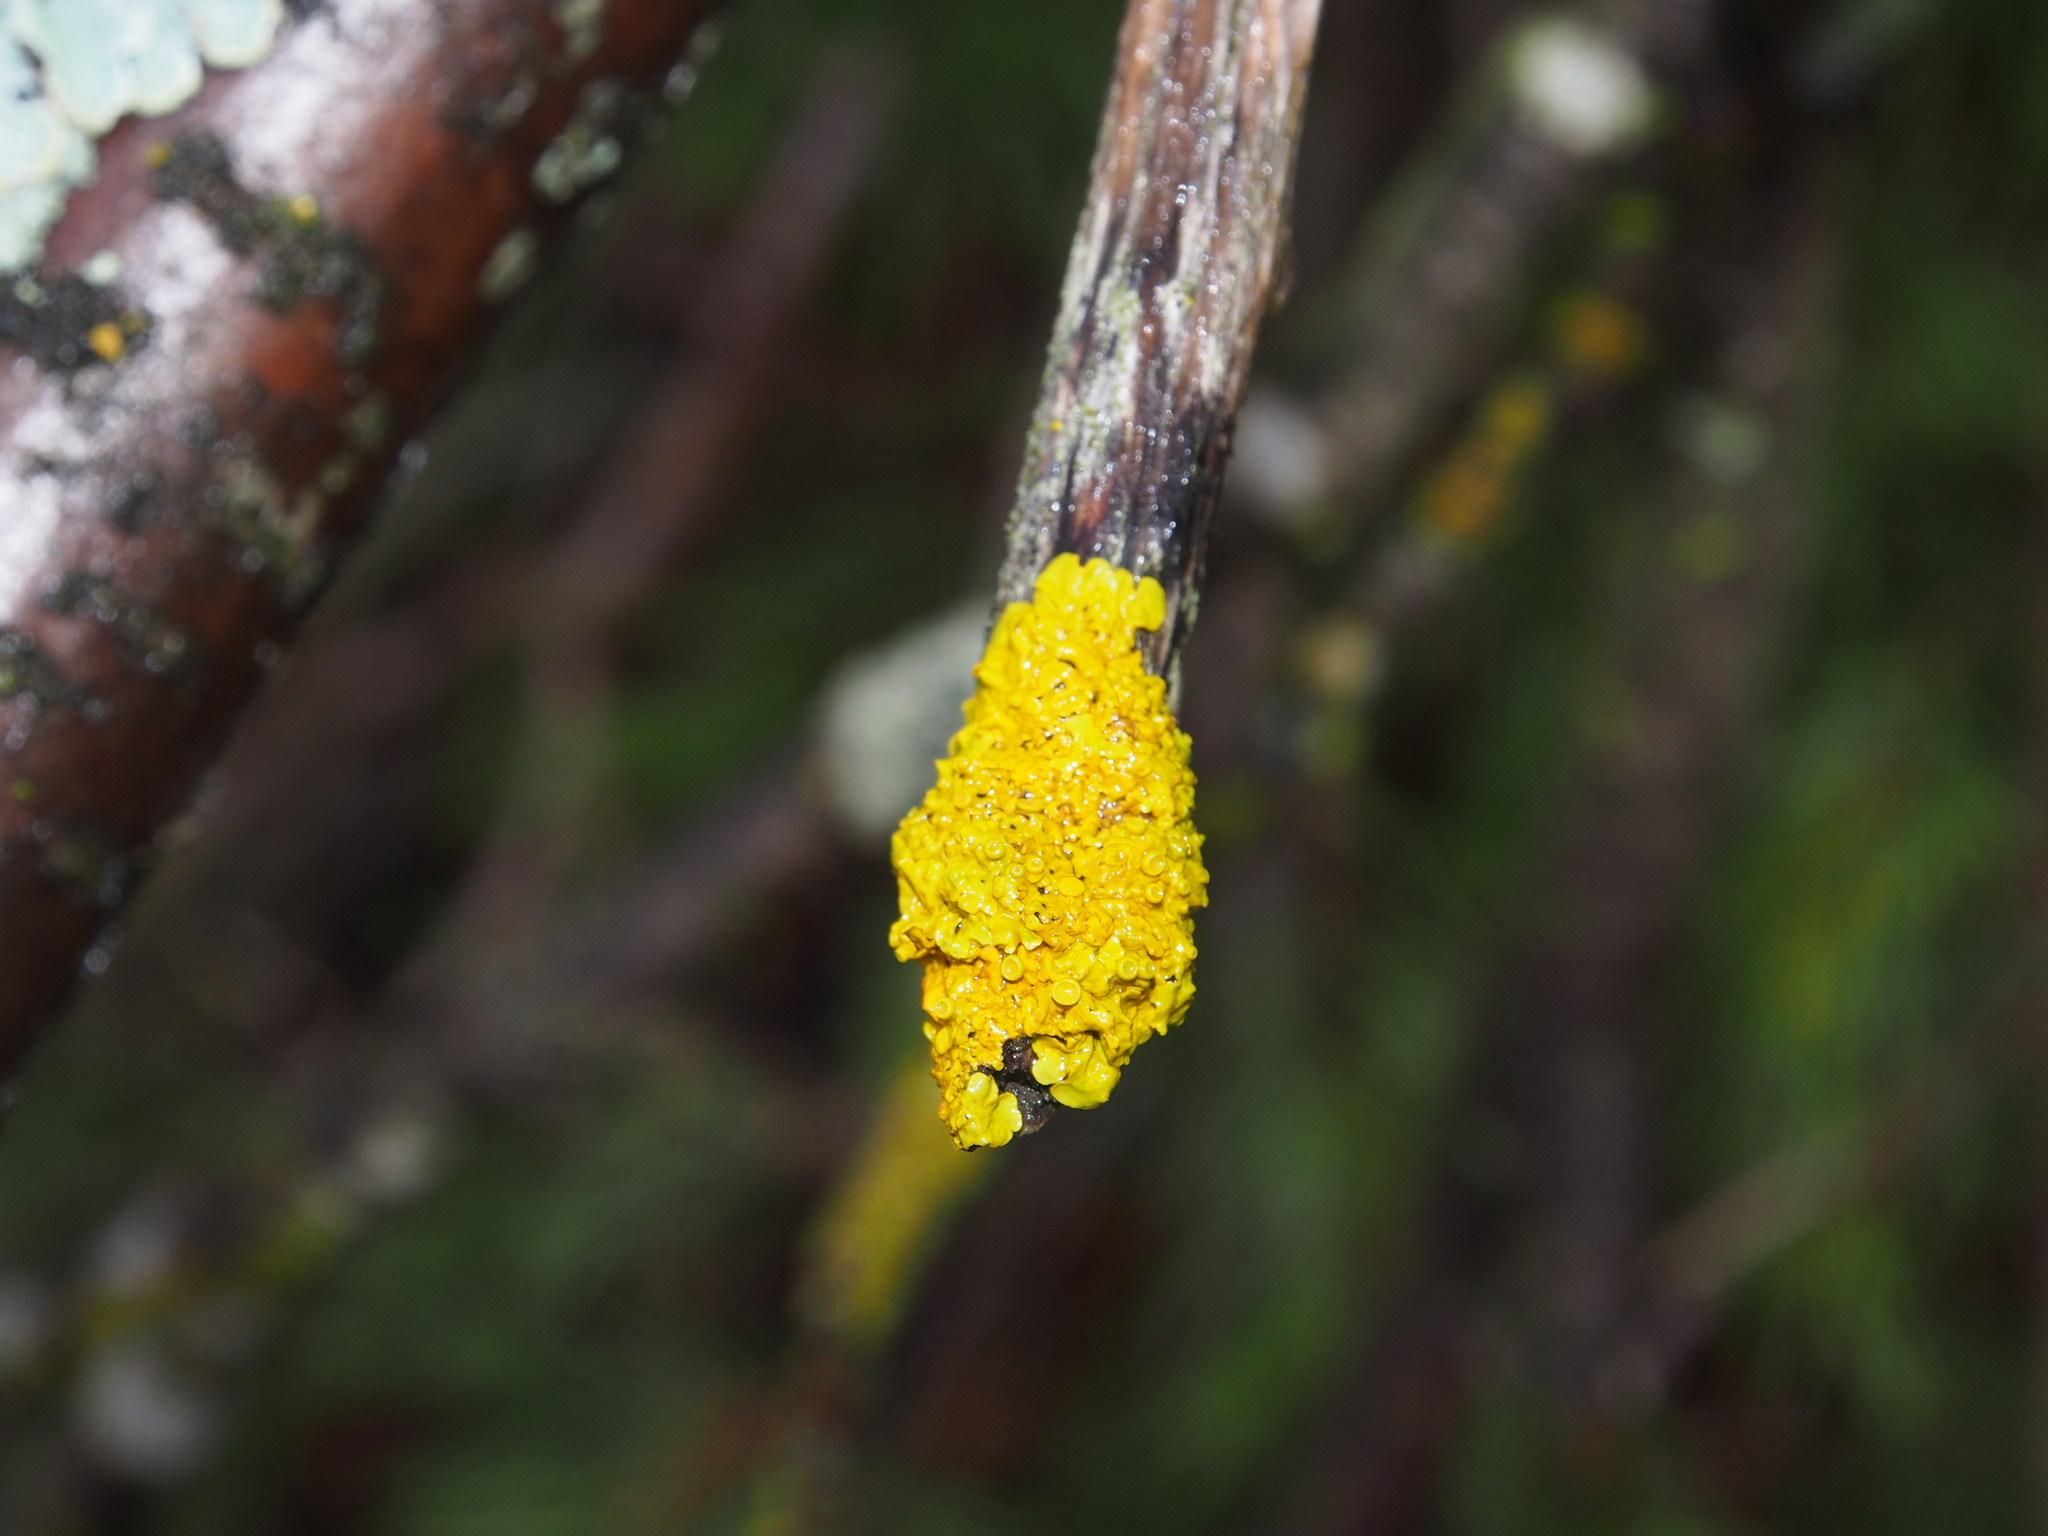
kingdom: Fungi
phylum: Ascomycota
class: Lecanoromycetes
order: Teloschistales
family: Teloschistaceae
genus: Xanthoria
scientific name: Xanthoria parietina
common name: Common orange lichen
